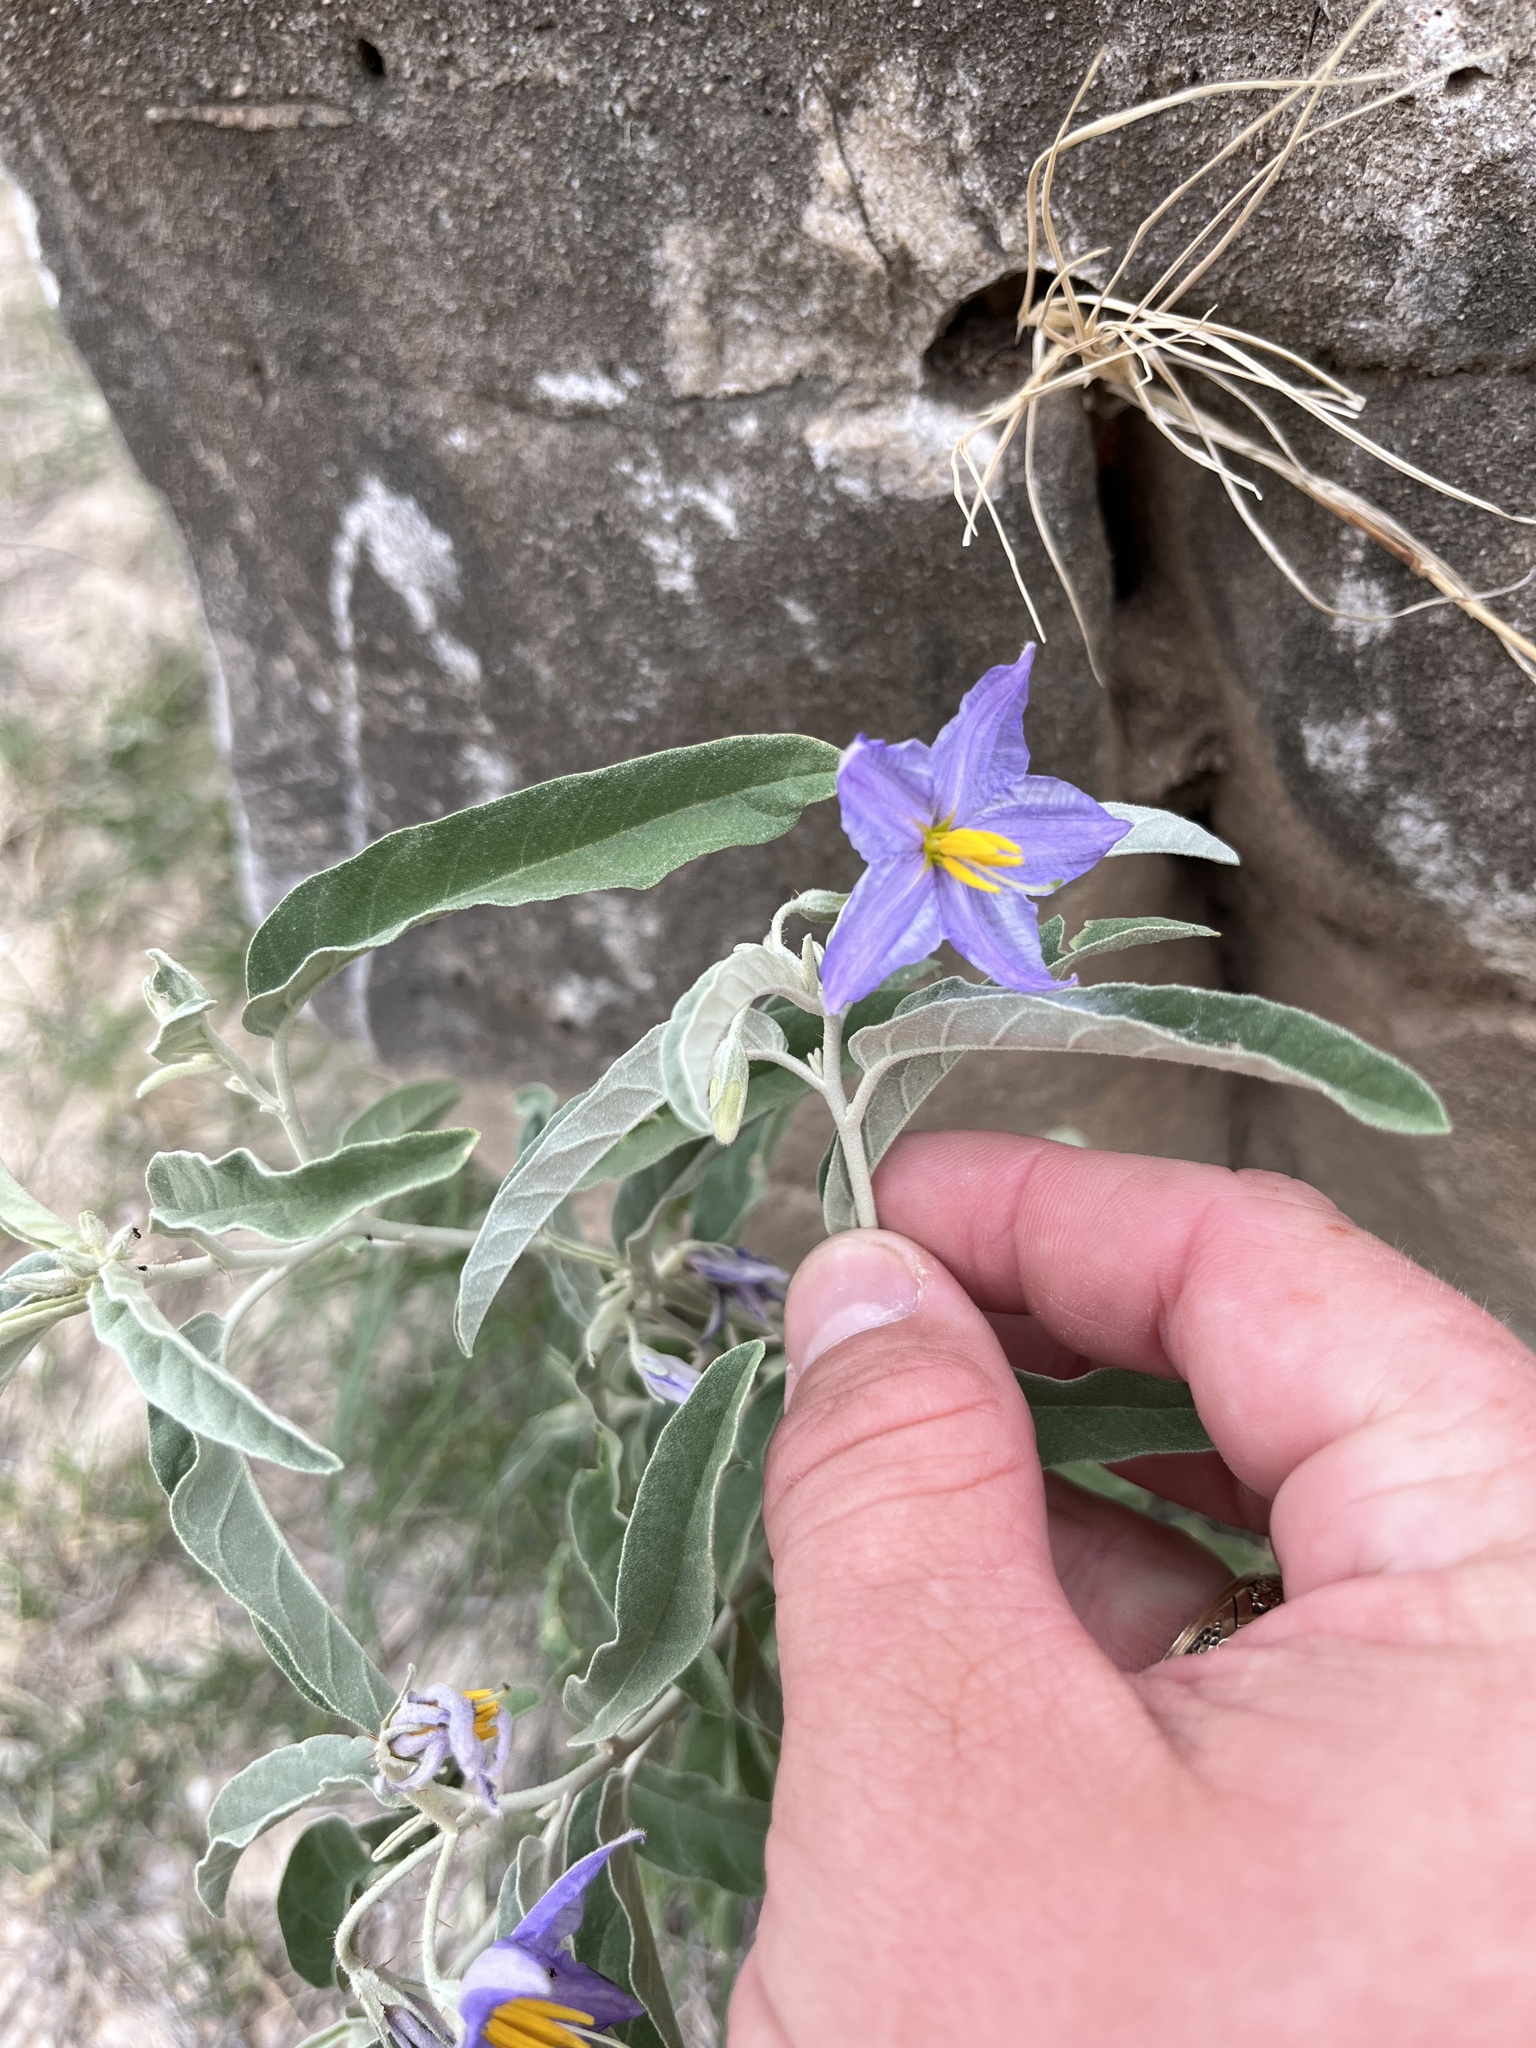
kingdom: Plantae
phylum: Tracheophyta
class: Magnoliopsida
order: Solanales
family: Solanaceae
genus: Solanum
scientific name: Solanum elaeagnifolium
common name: Silverleaf nightshade
